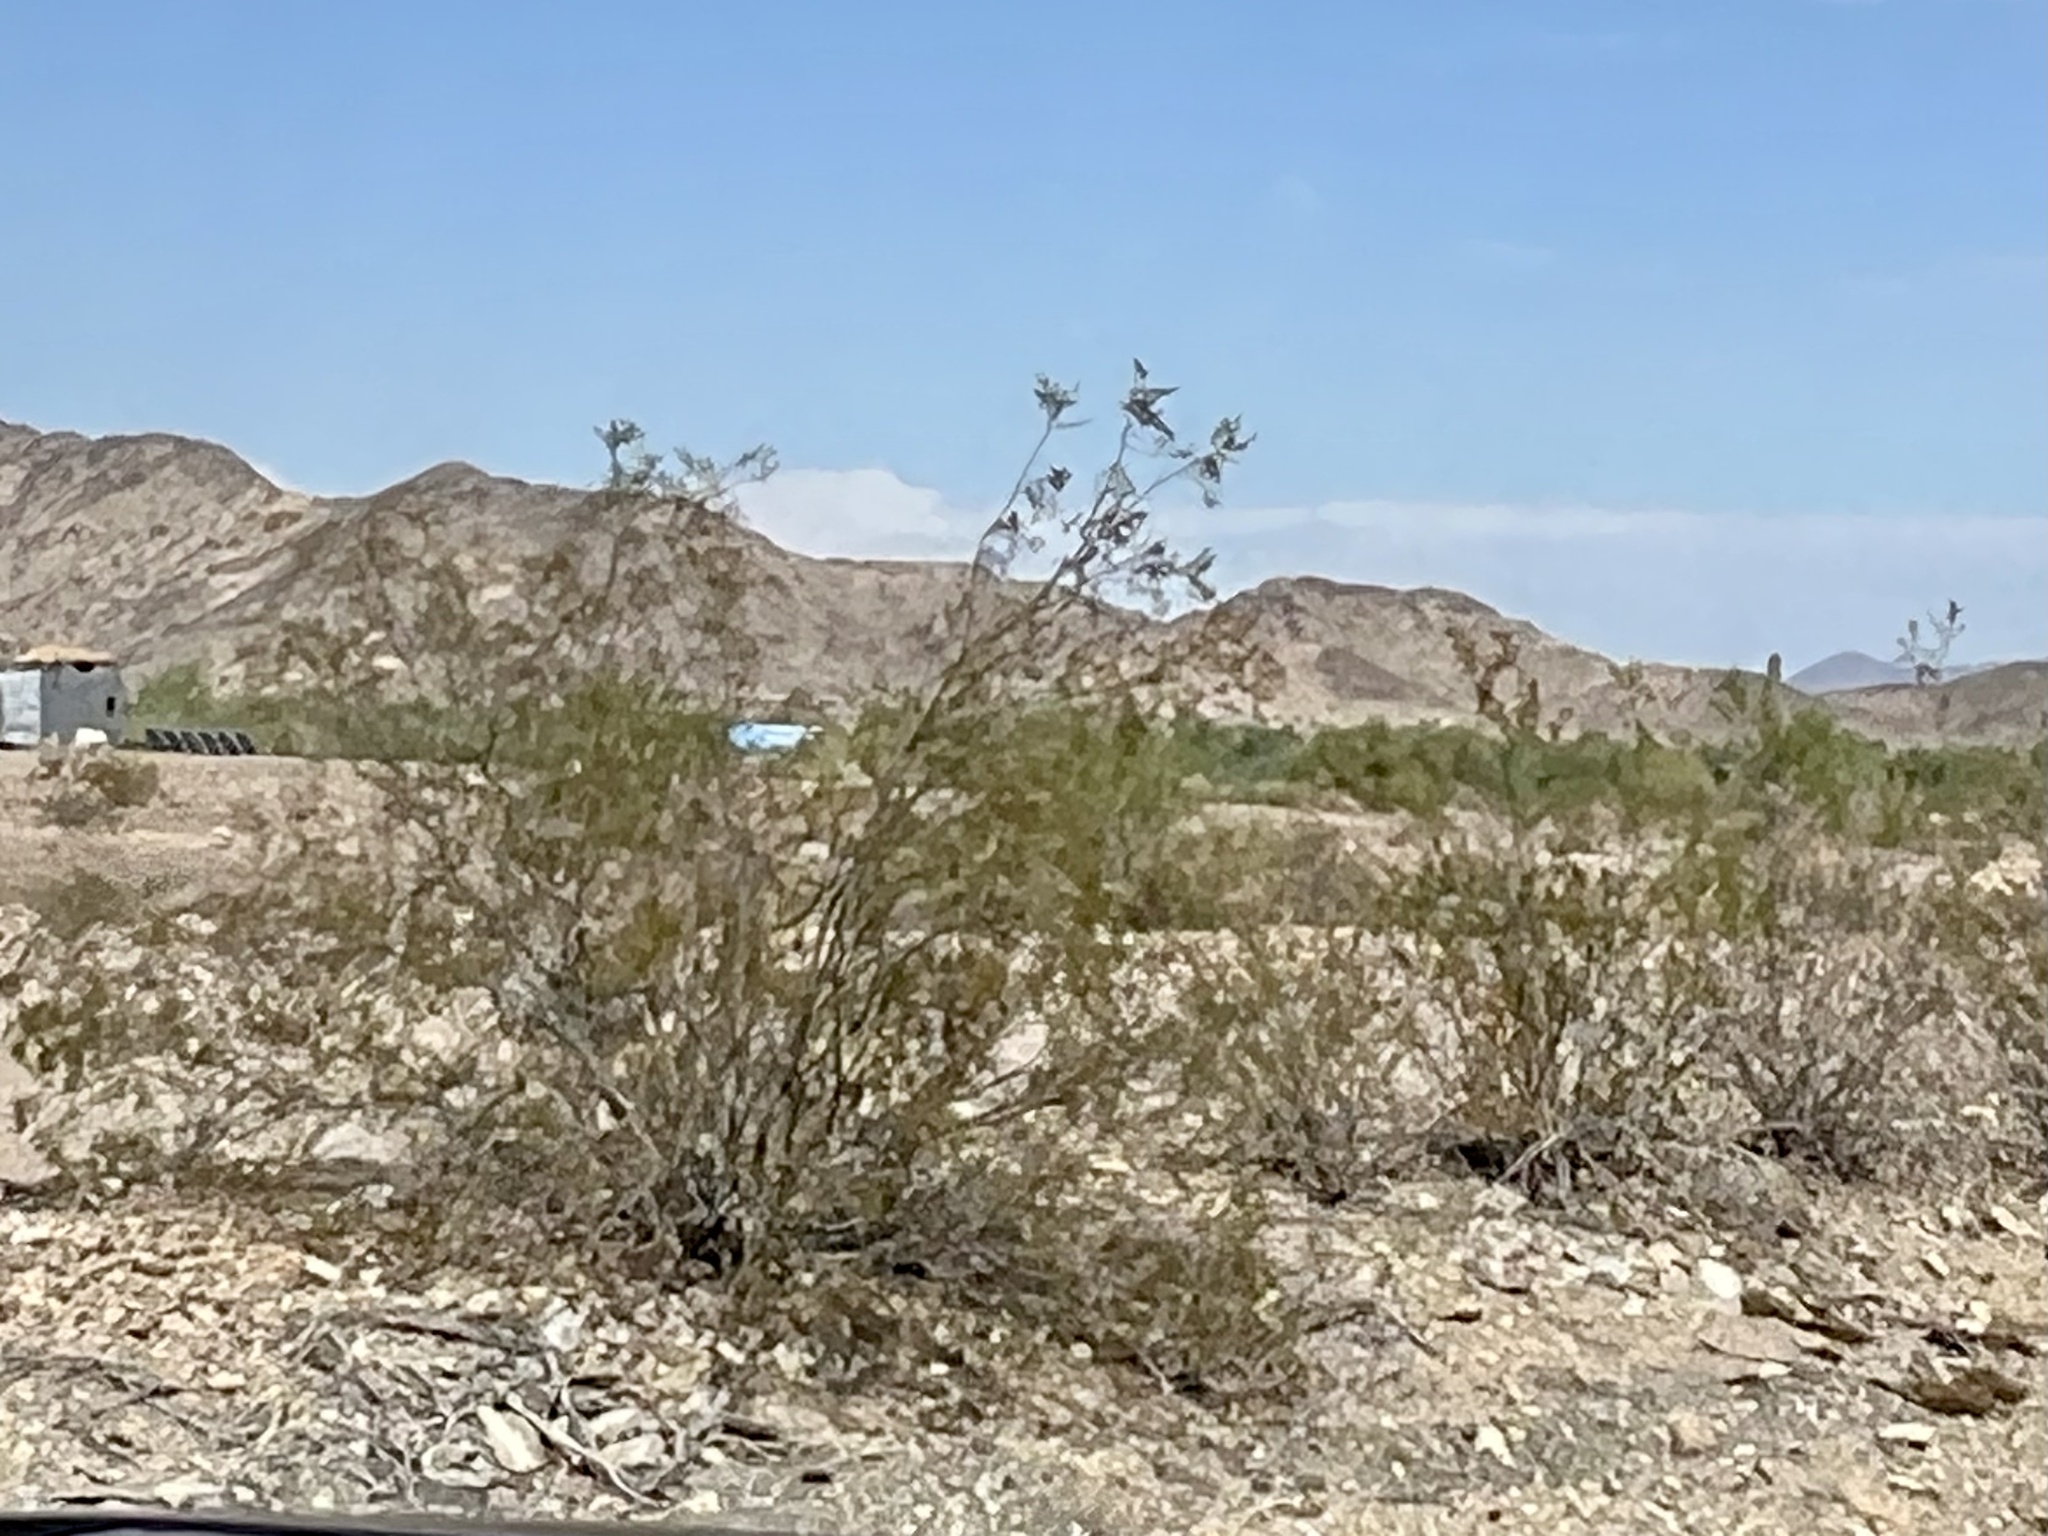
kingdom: Plantae
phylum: Tracheophyta
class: Magnoliopsida
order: Zygophyllales
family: Zygophyllaceae
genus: Larrea
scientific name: Larrea tridentata
